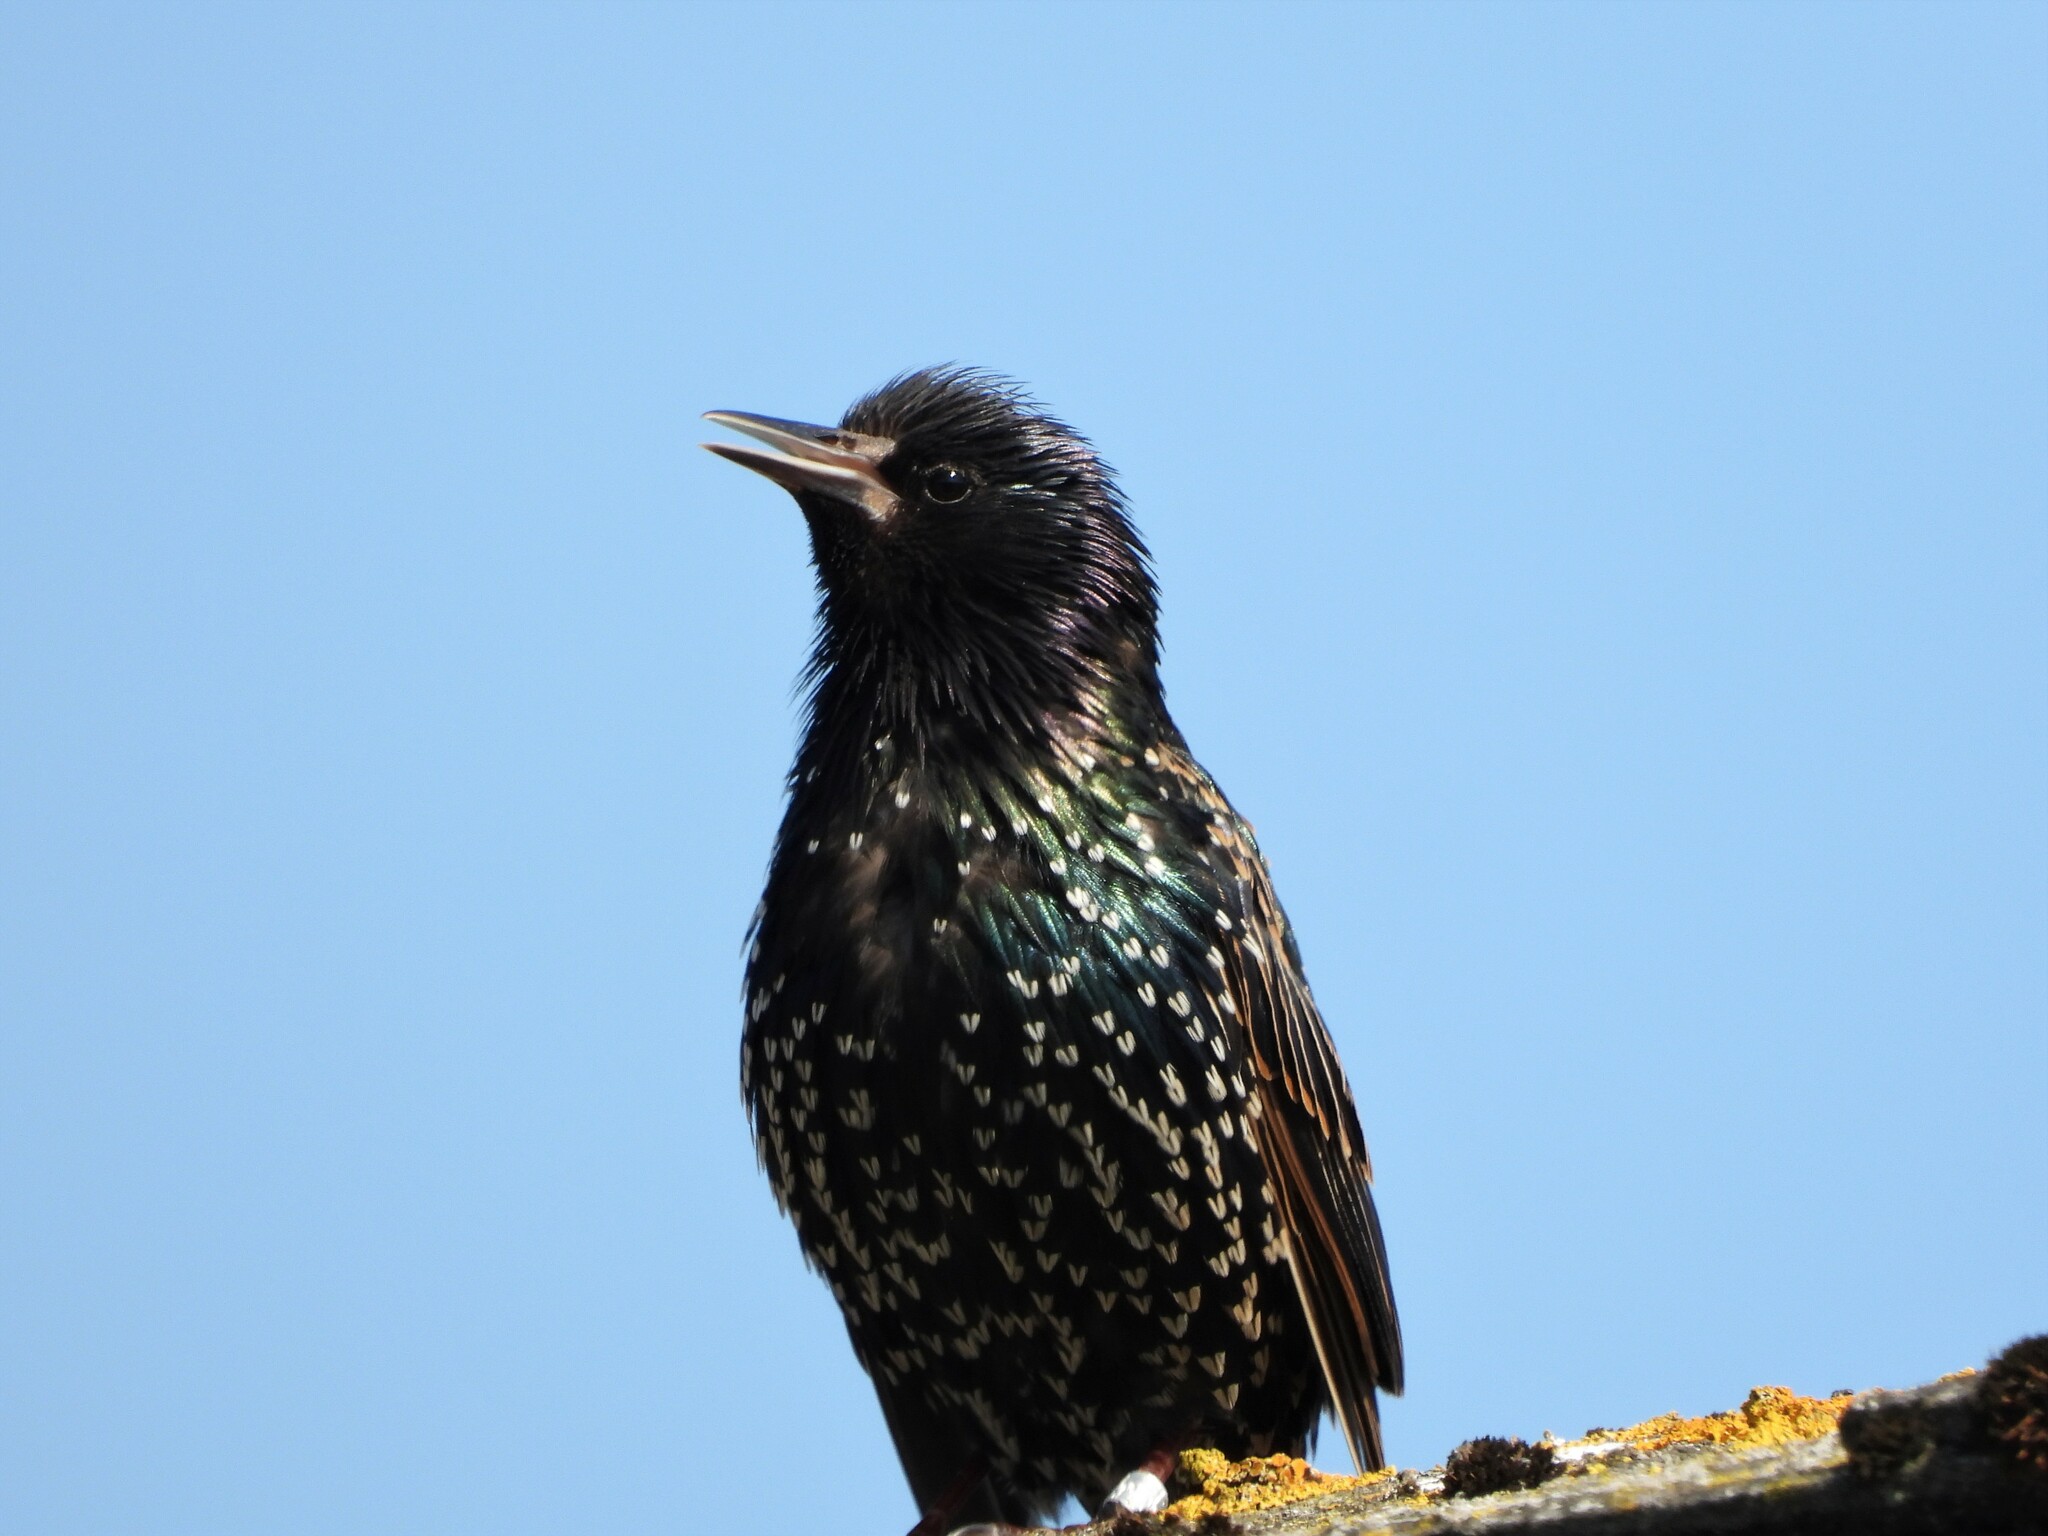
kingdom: Animalia
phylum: Chordata
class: Aves
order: Passeriformes
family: Sturnidae
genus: Sturnus
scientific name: Sturnus vulgaris
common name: Common starling
